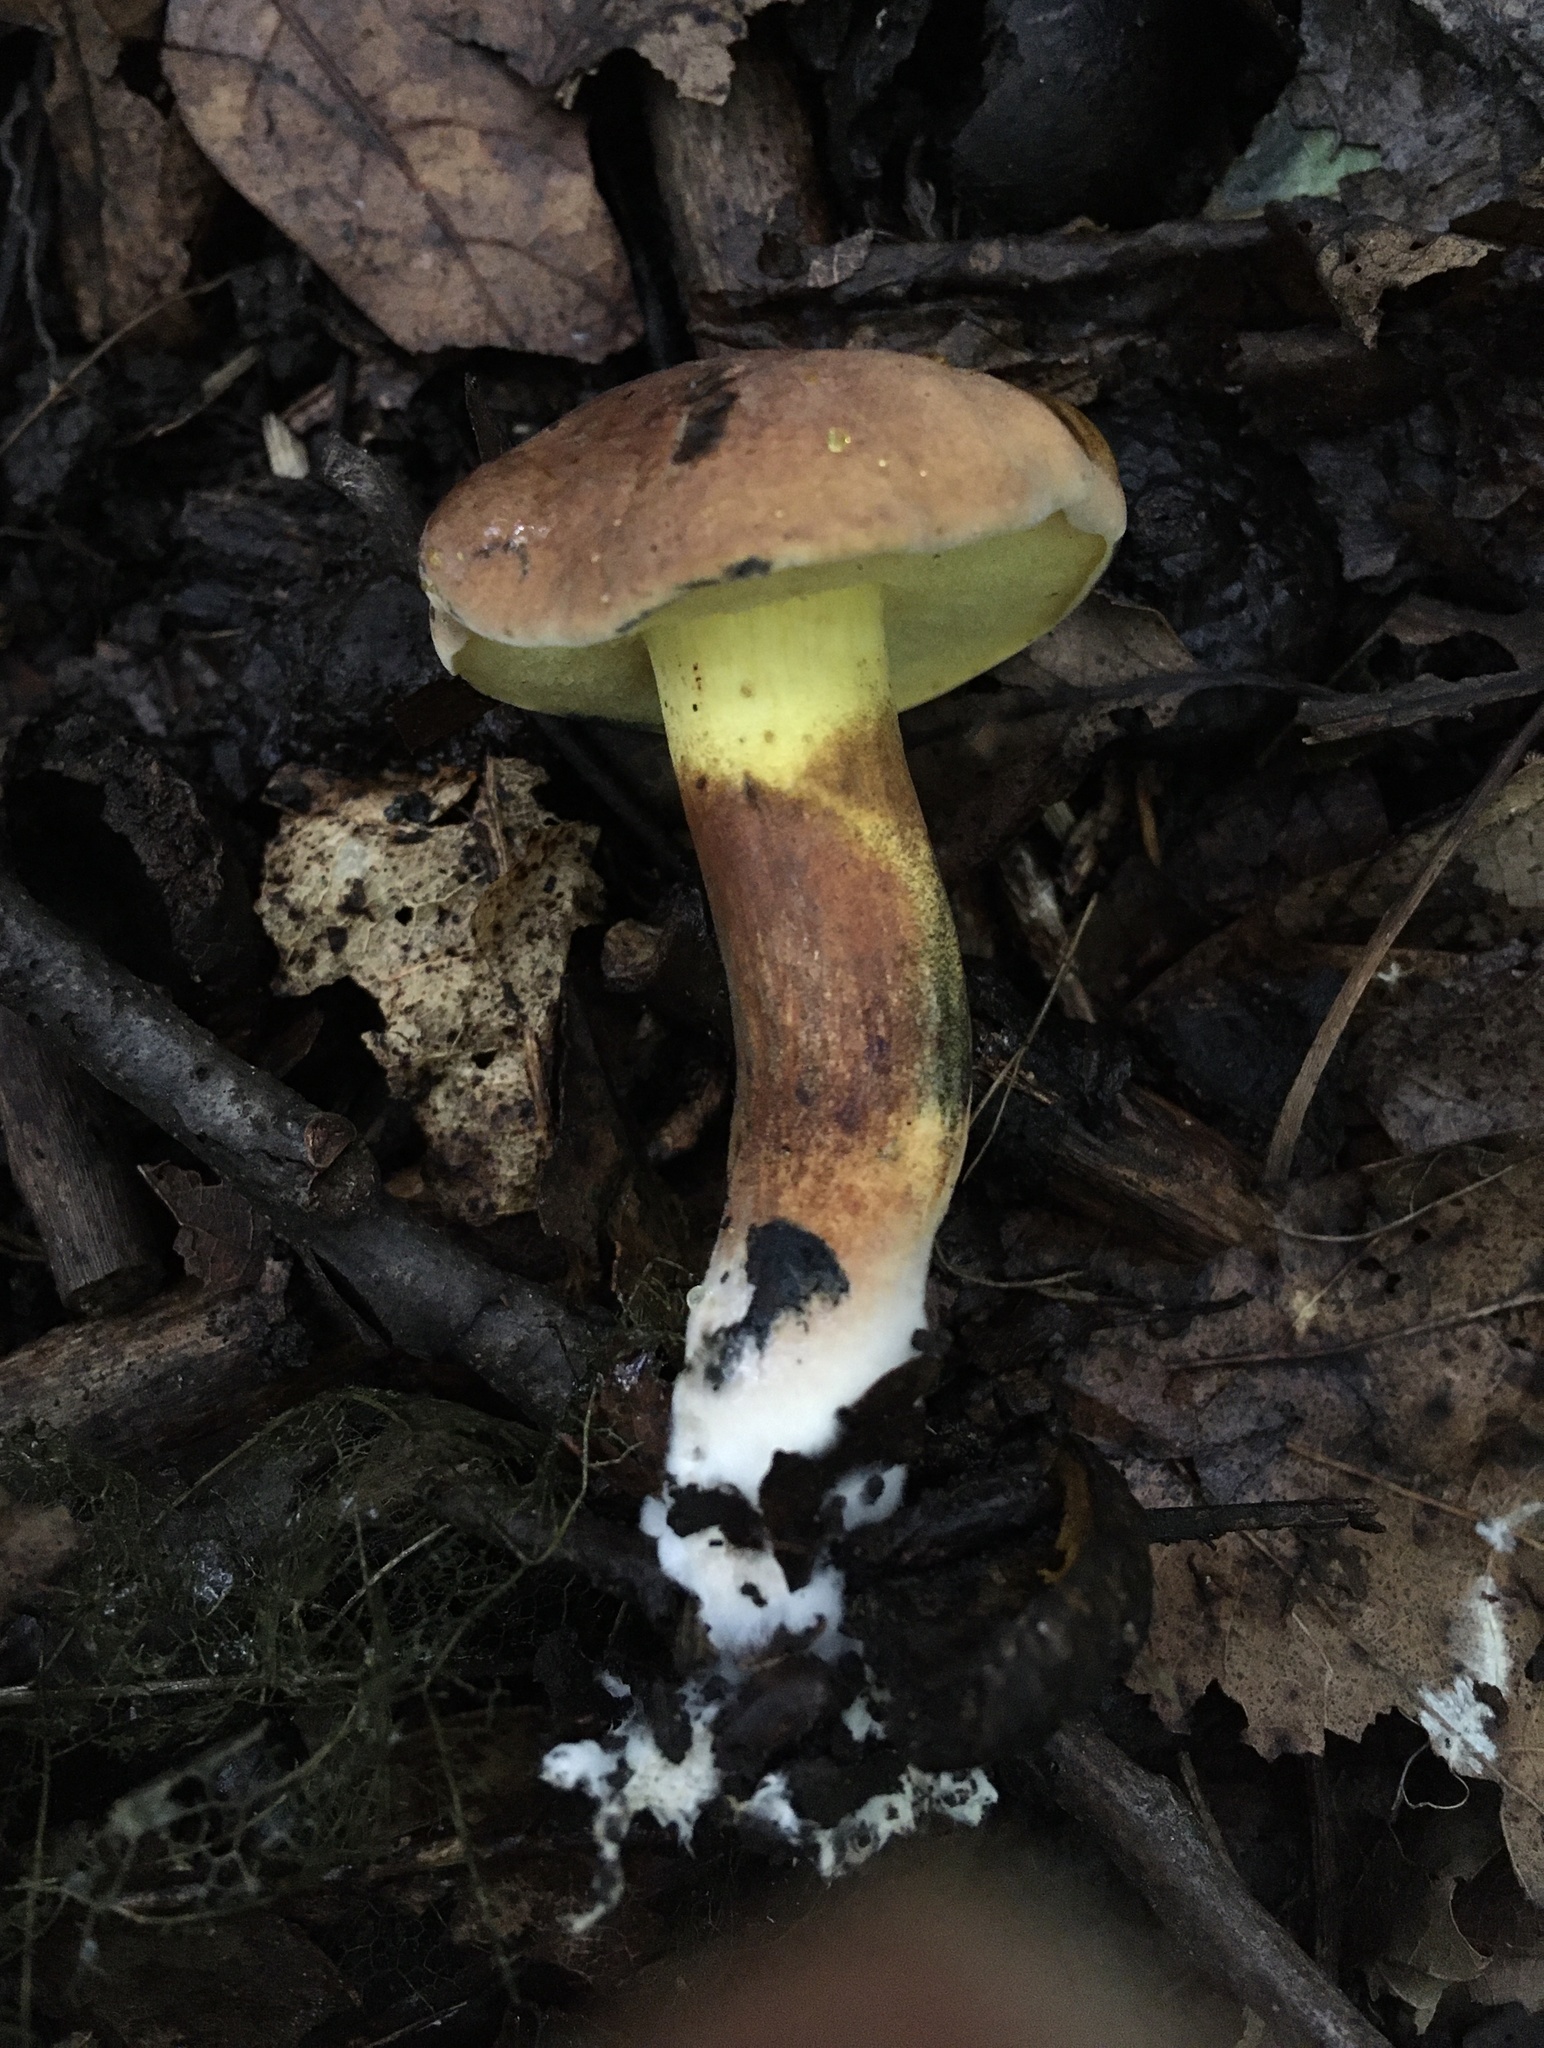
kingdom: Fungi
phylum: Basidiomycota
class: Agaricomycetes
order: Boletales
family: Boletaceae
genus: Cyanoboletus
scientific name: Cyanoboletus pulverulentus
